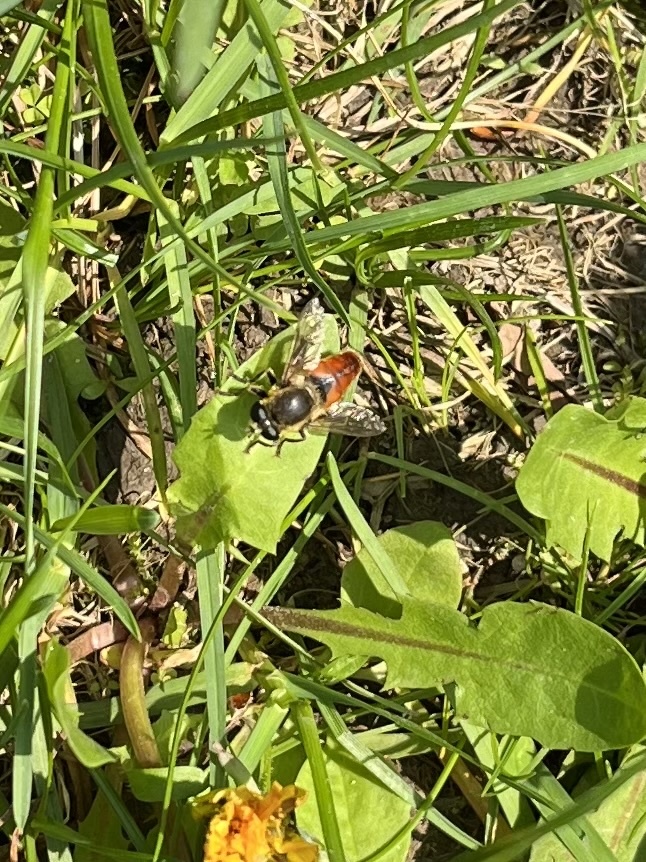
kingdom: Animalia
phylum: Arthropoda
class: Insecta
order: Diptera
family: Syrphidae
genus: Polydontomyia
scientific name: Polydontomyia curvipes
